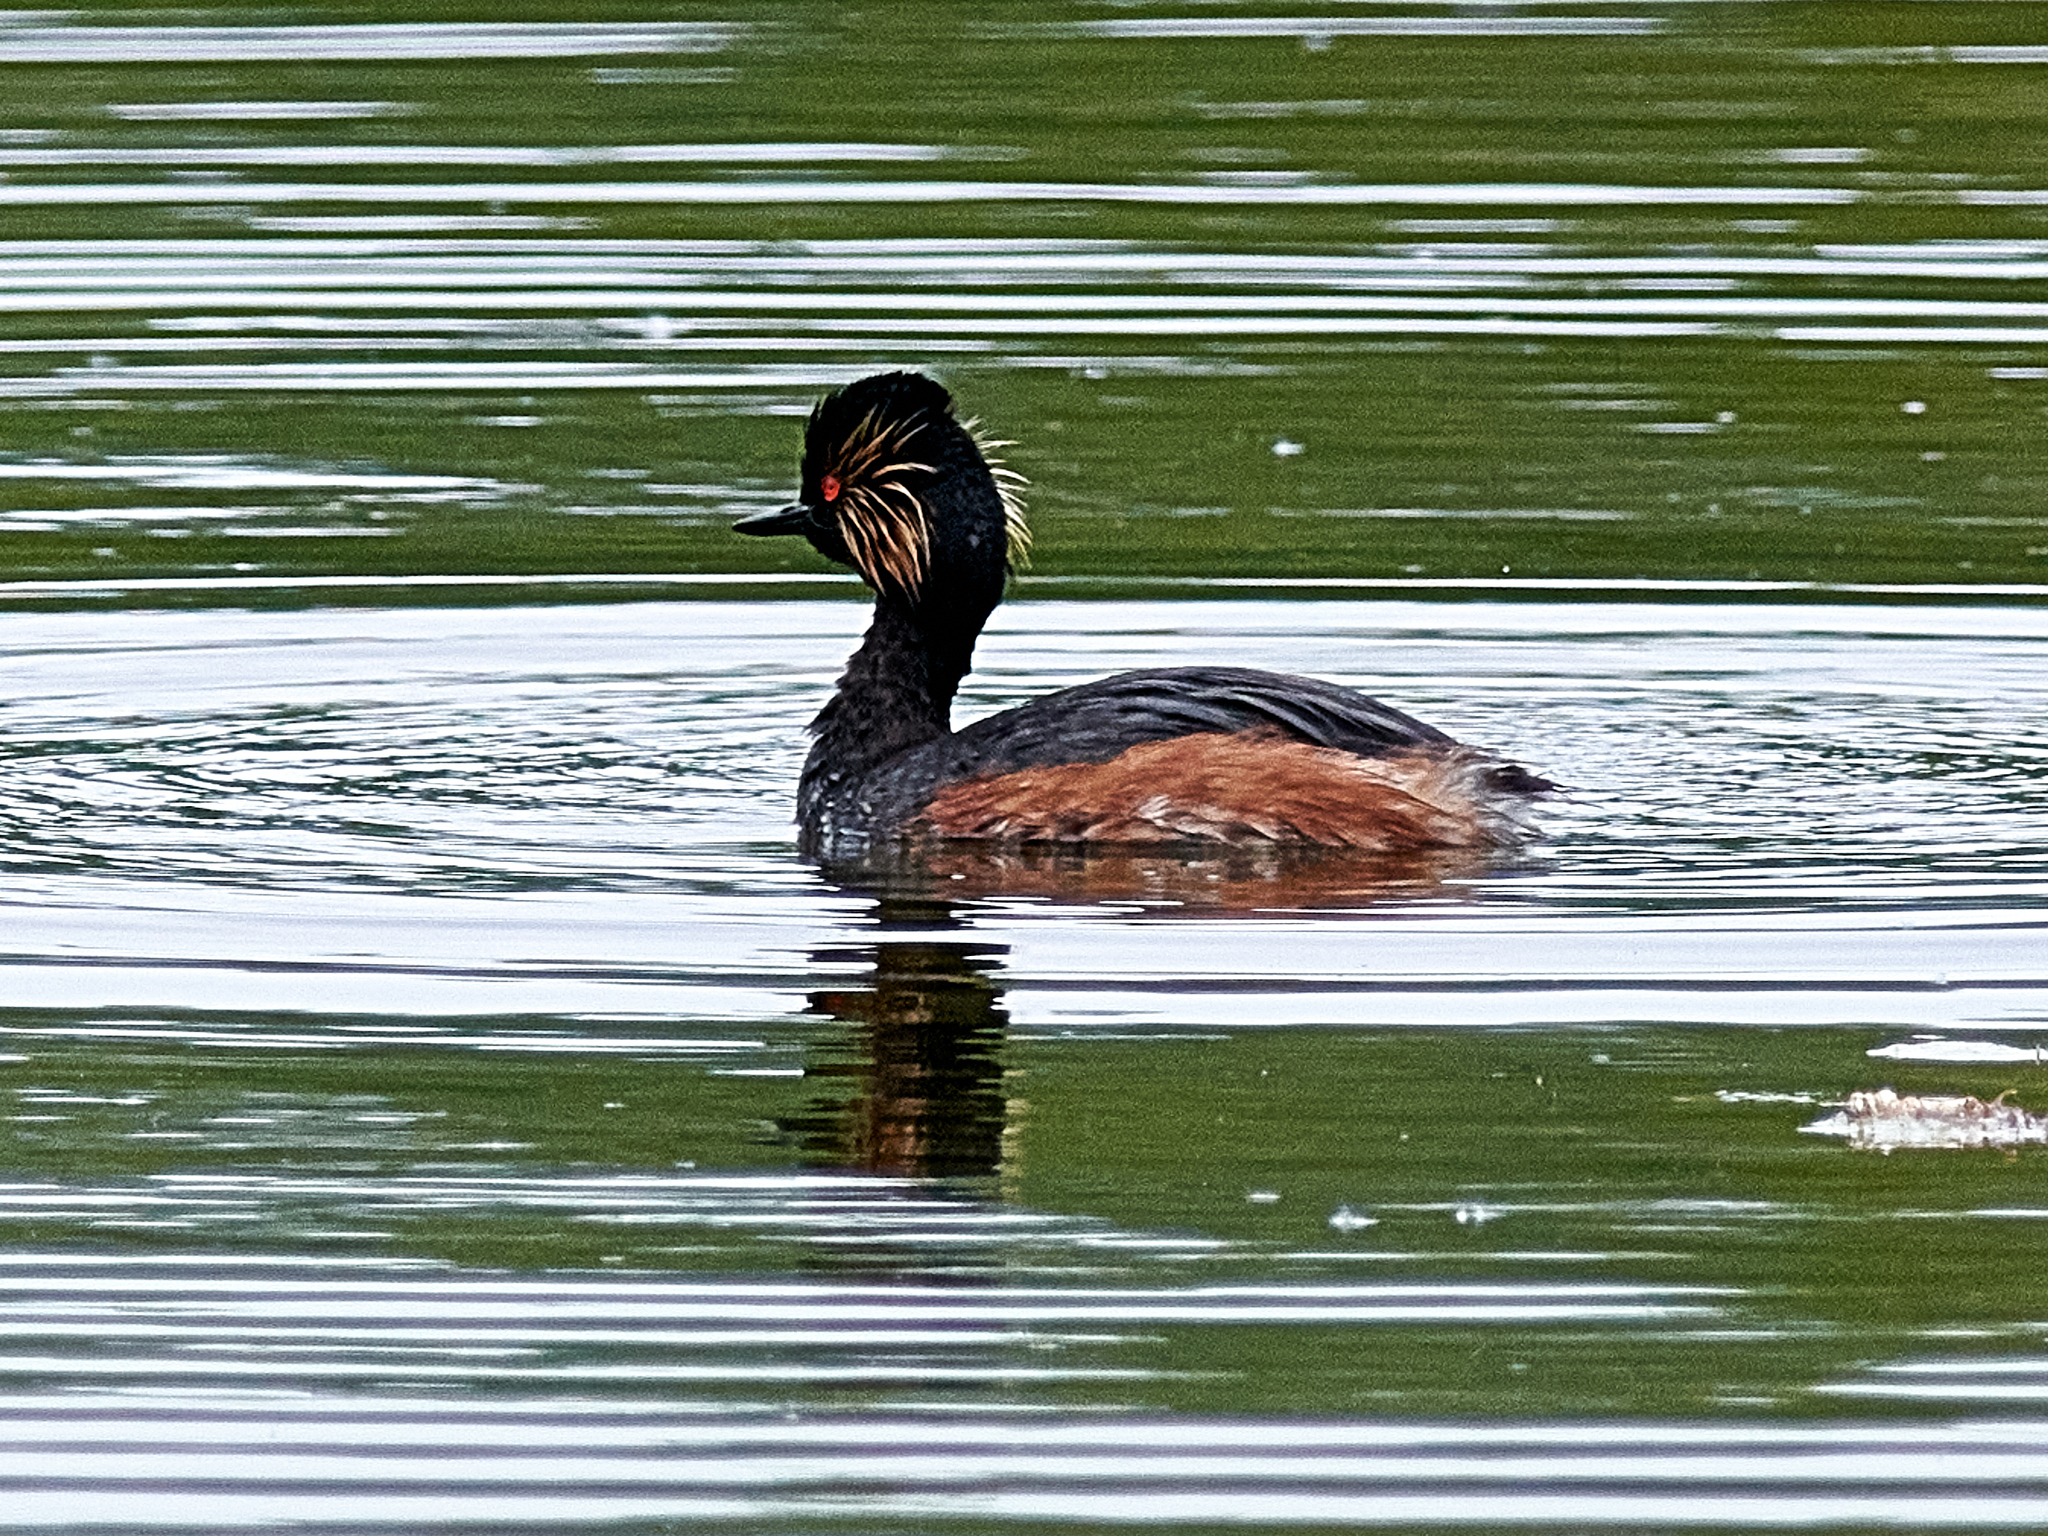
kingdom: Animalia
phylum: Chordata
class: Aves
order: Podicipediformes
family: Podicipedidae
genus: Podiceps
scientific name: Podiceps nigricollis
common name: Black-necked grebe
